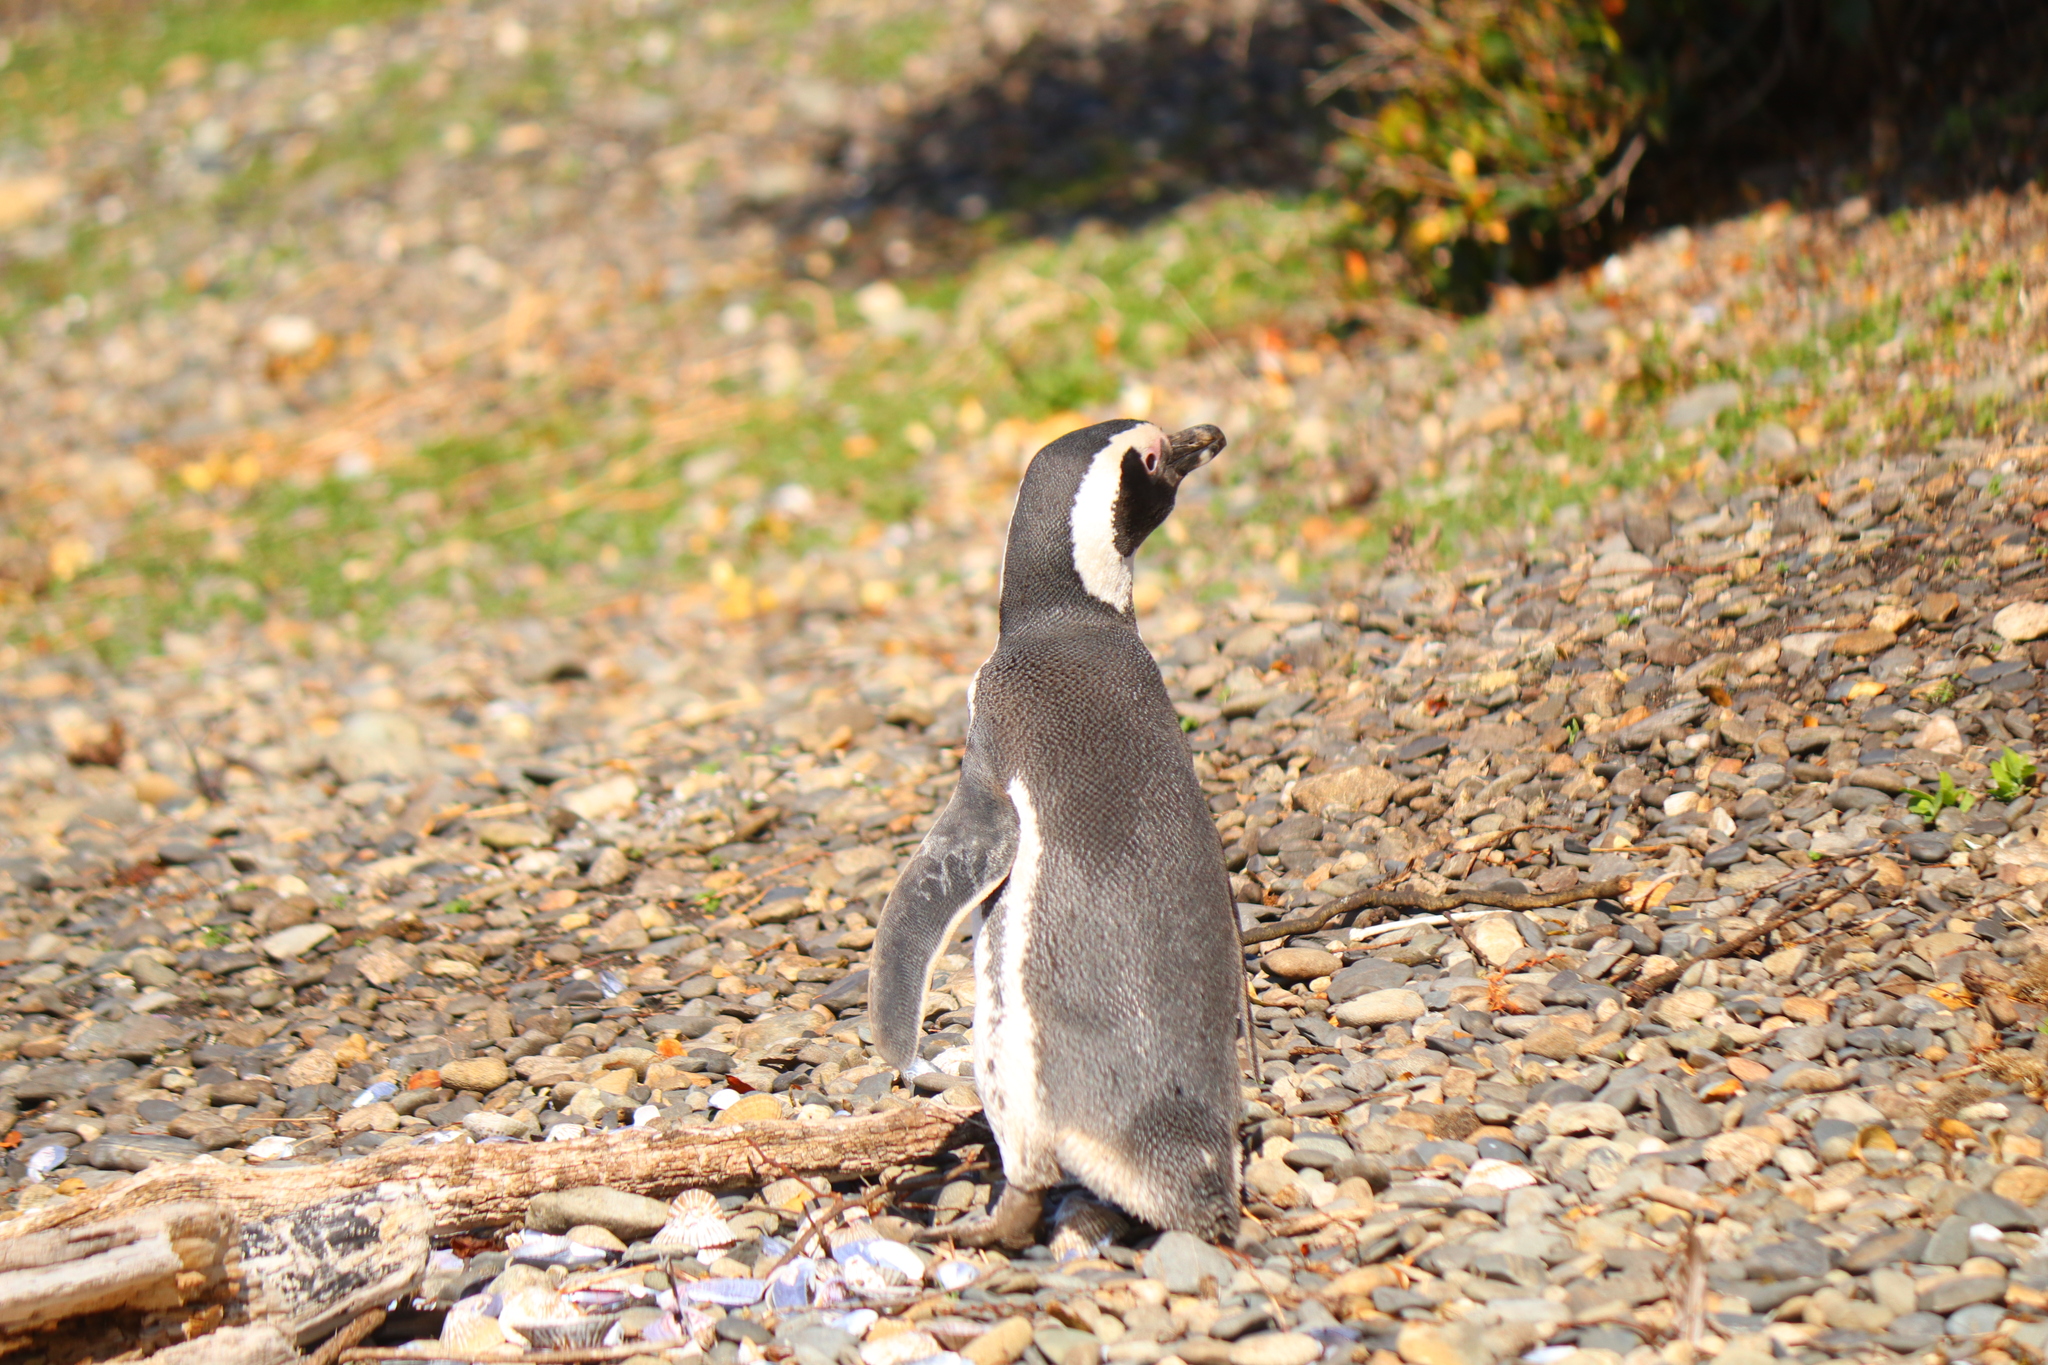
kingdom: Animalia
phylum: Chordata
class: Aves
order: Sphenisciformes
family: Spheniscidae
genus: Spheniscus
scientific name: Spheniscus magellanicus
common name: Magellanic penguin
